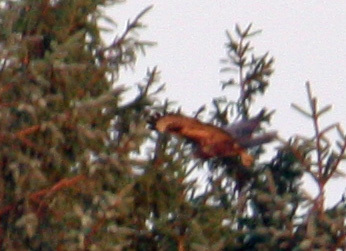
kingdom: Animalia
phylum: Chordata
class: Aves
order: Accipitriformes
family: Accipitridae
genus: Buteo
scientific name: Buteo buteo
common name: Common buzzard
